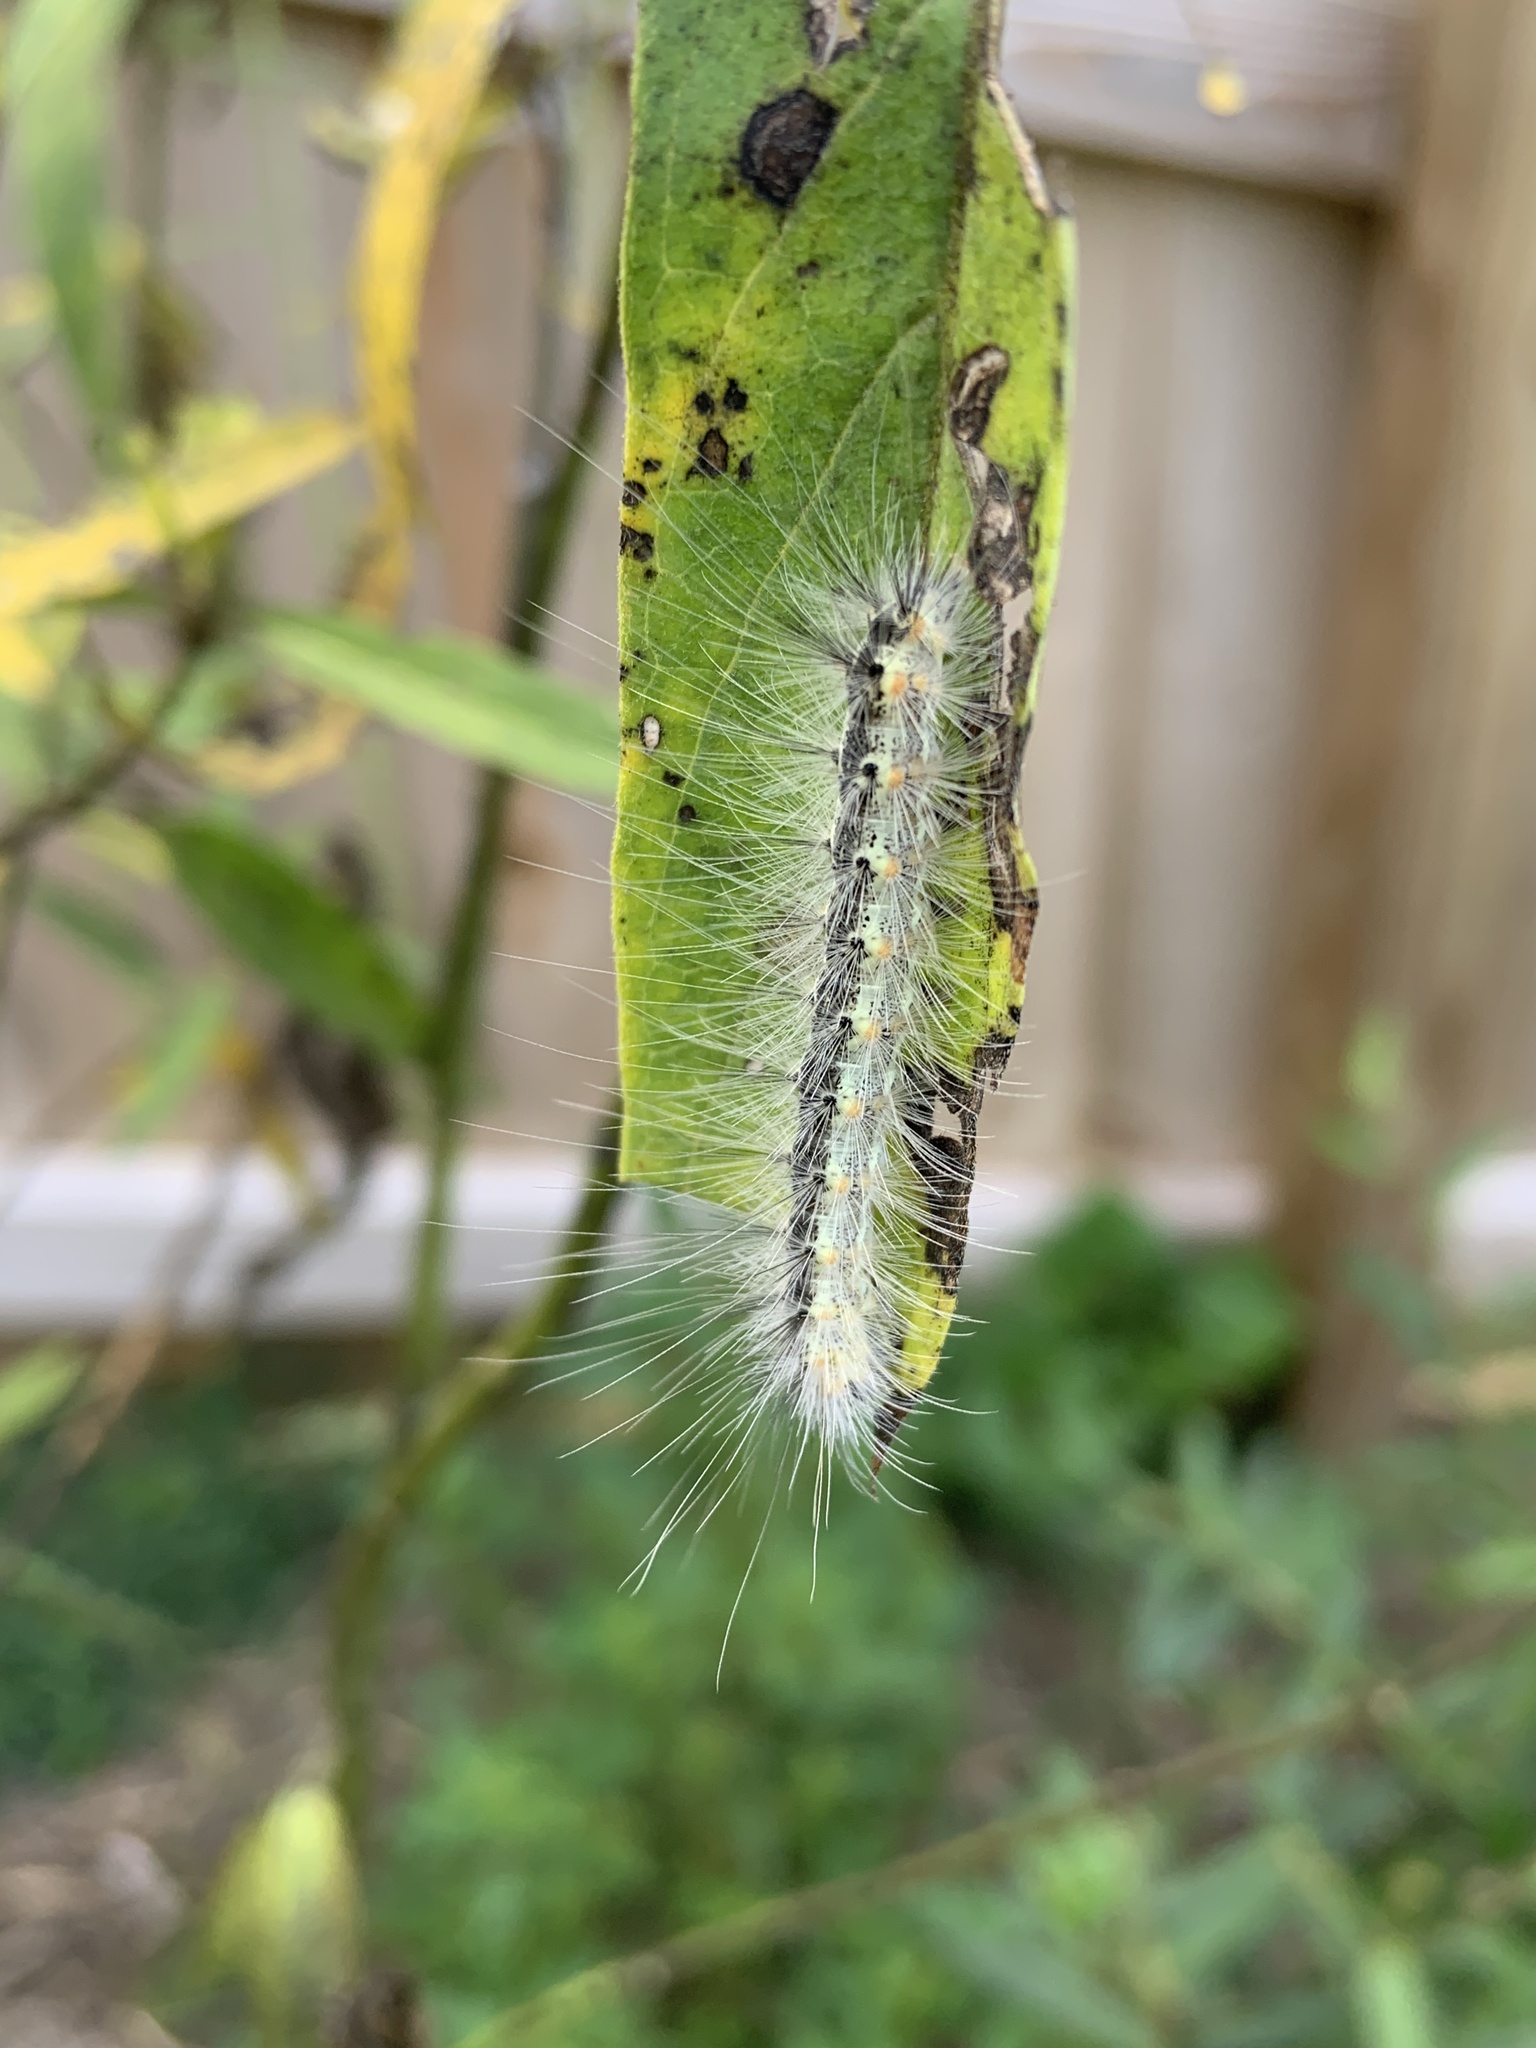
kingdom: Animalia
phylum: Arthropoda
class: Insecta
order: Lepidoptera
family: Erebidae
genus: Hyphantria
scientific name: Hyphantria cunea
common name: American white moth
